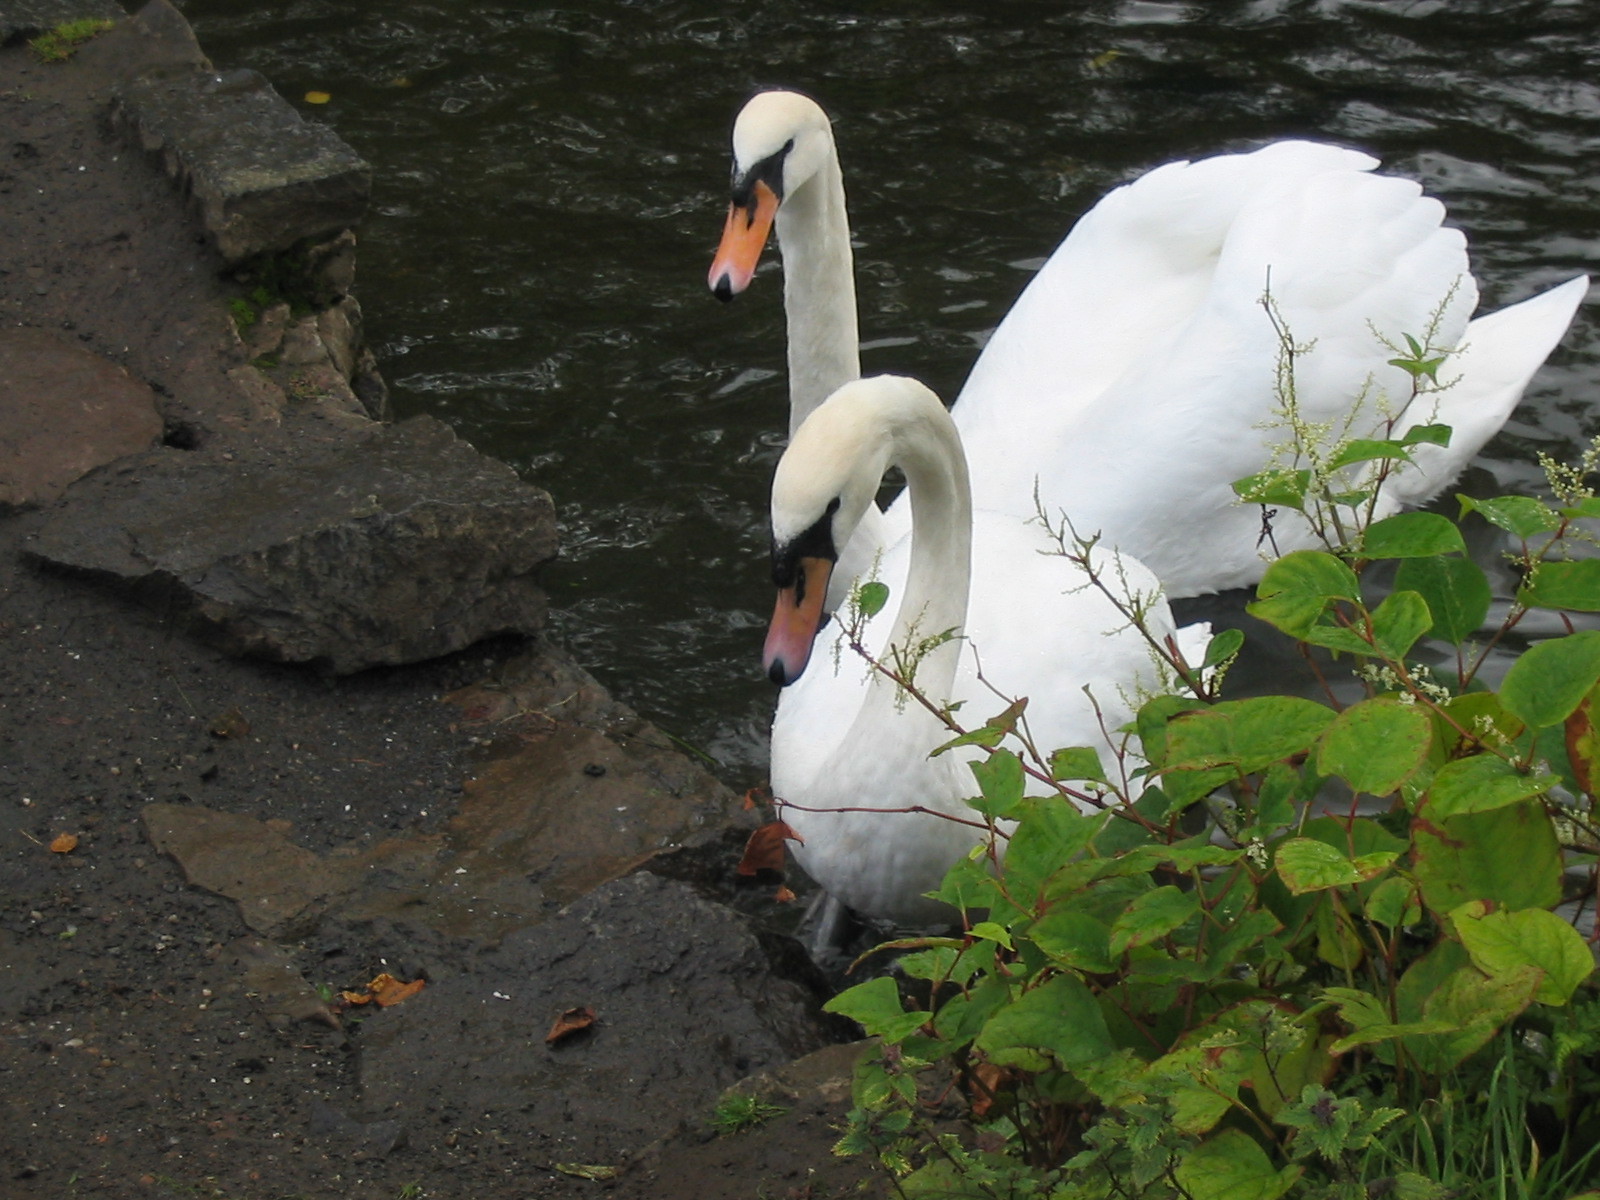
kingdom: Animalia
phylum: Chordata
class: Aves
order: Anseriformes
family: Anatidae
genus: Cygnus
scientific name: Cygnus olor
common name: Mute swan
